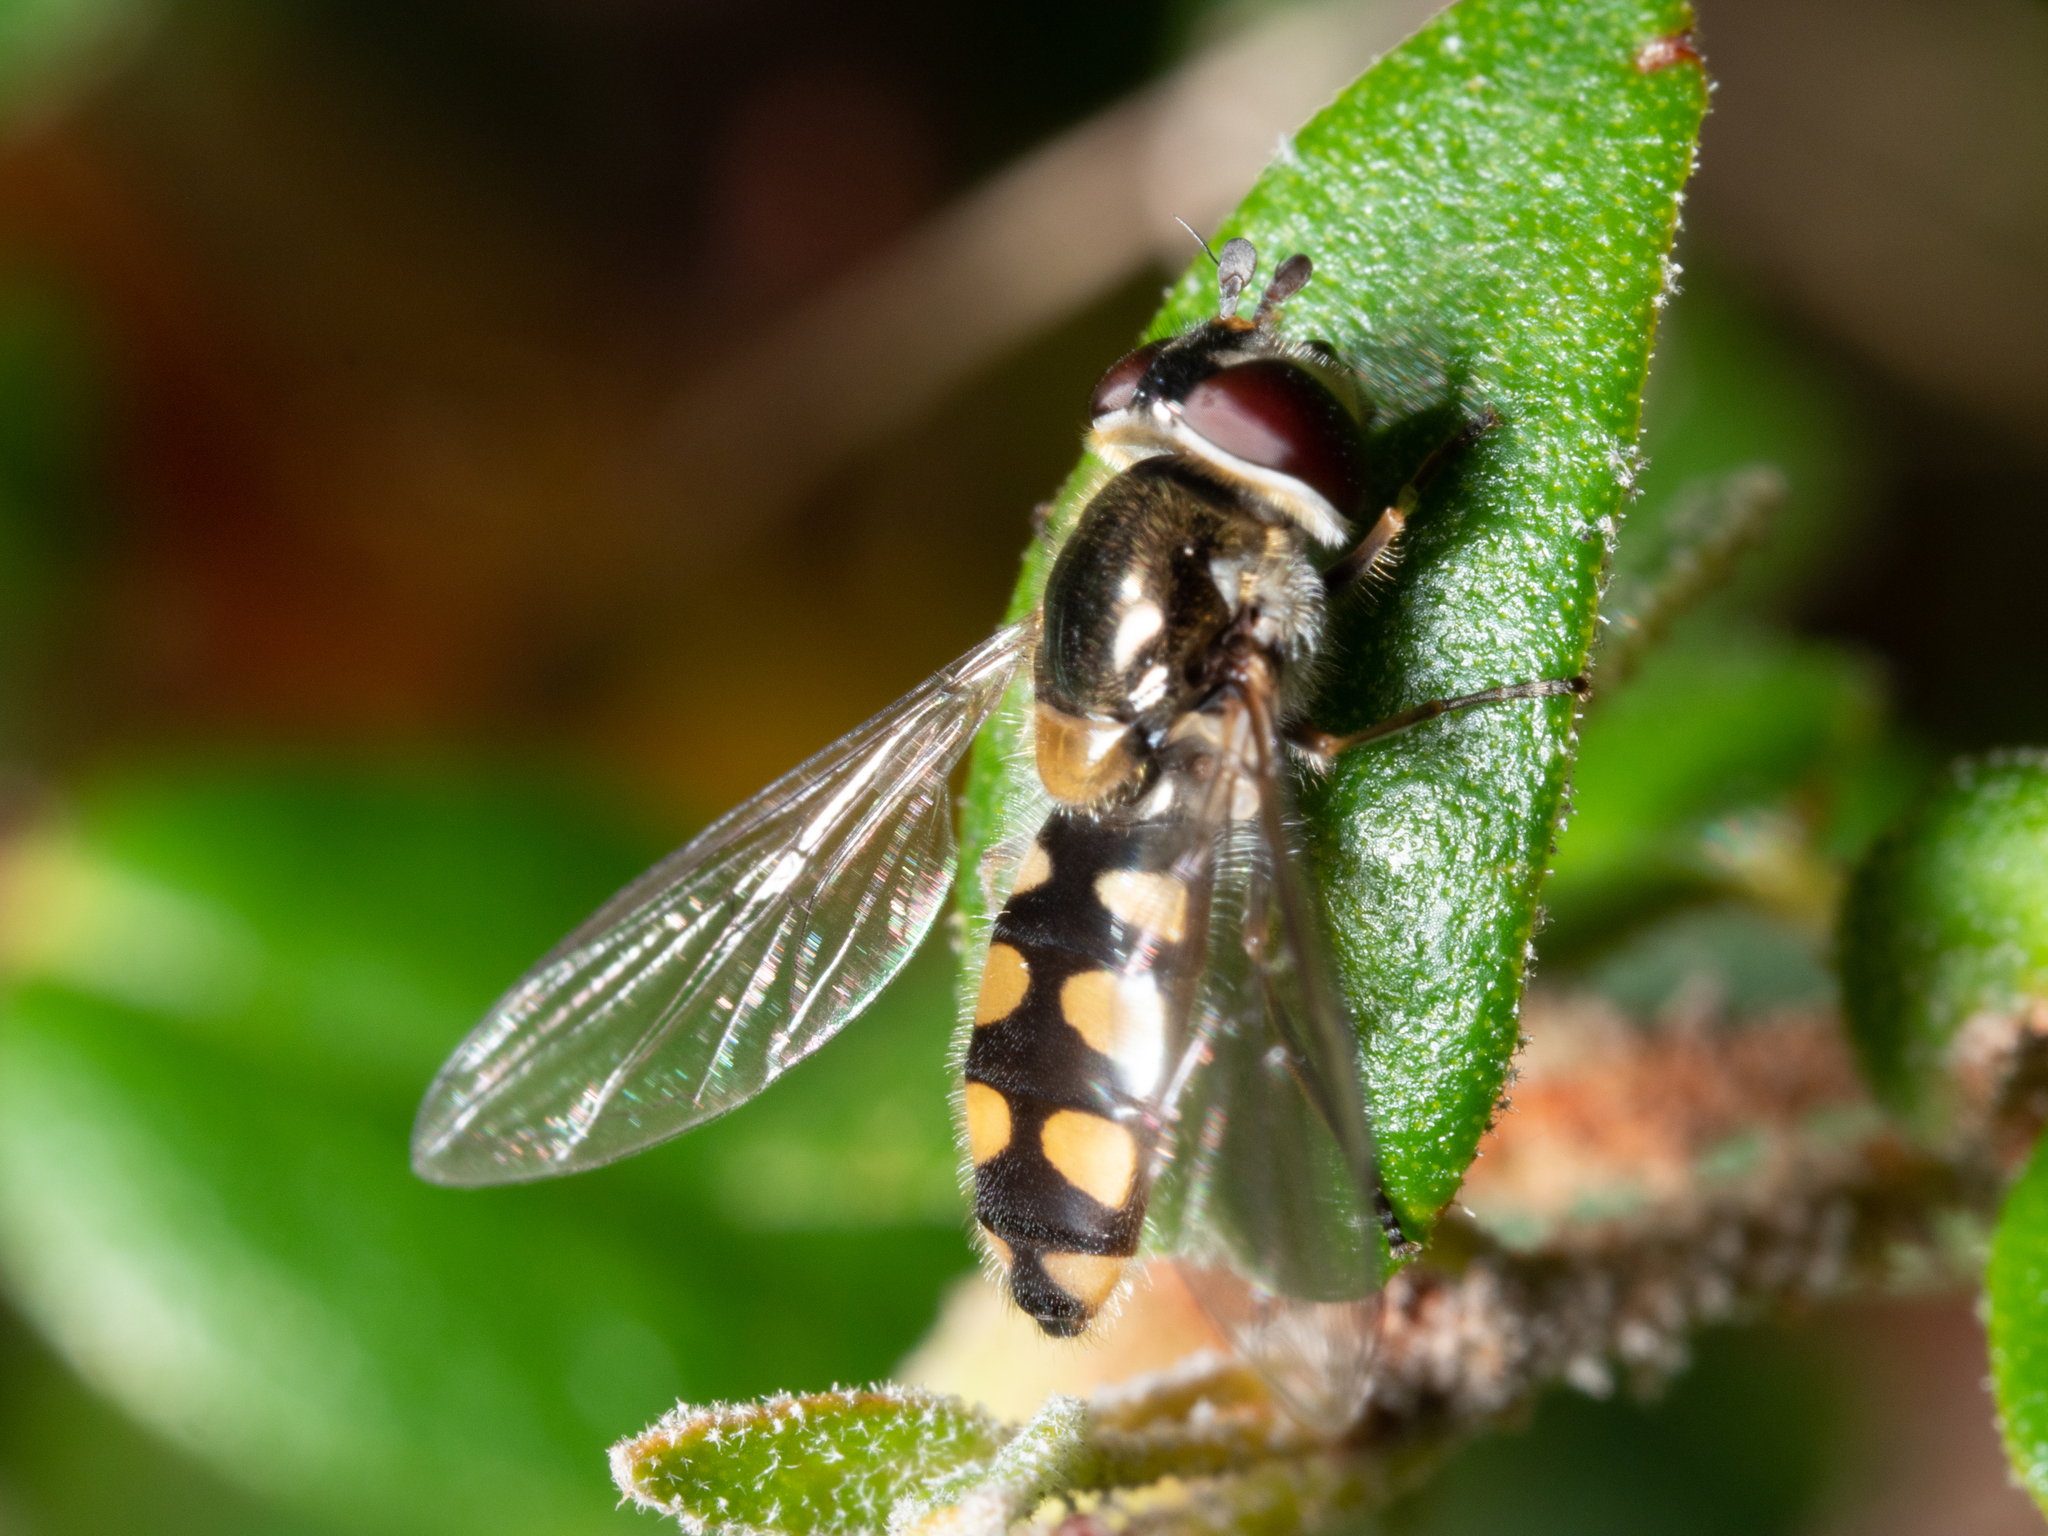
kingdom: Animalia
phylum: Arthropoda
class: Insecta
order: Diptera
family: Syrphidae
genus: Melangyna
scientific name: Melangyna viridiceps
